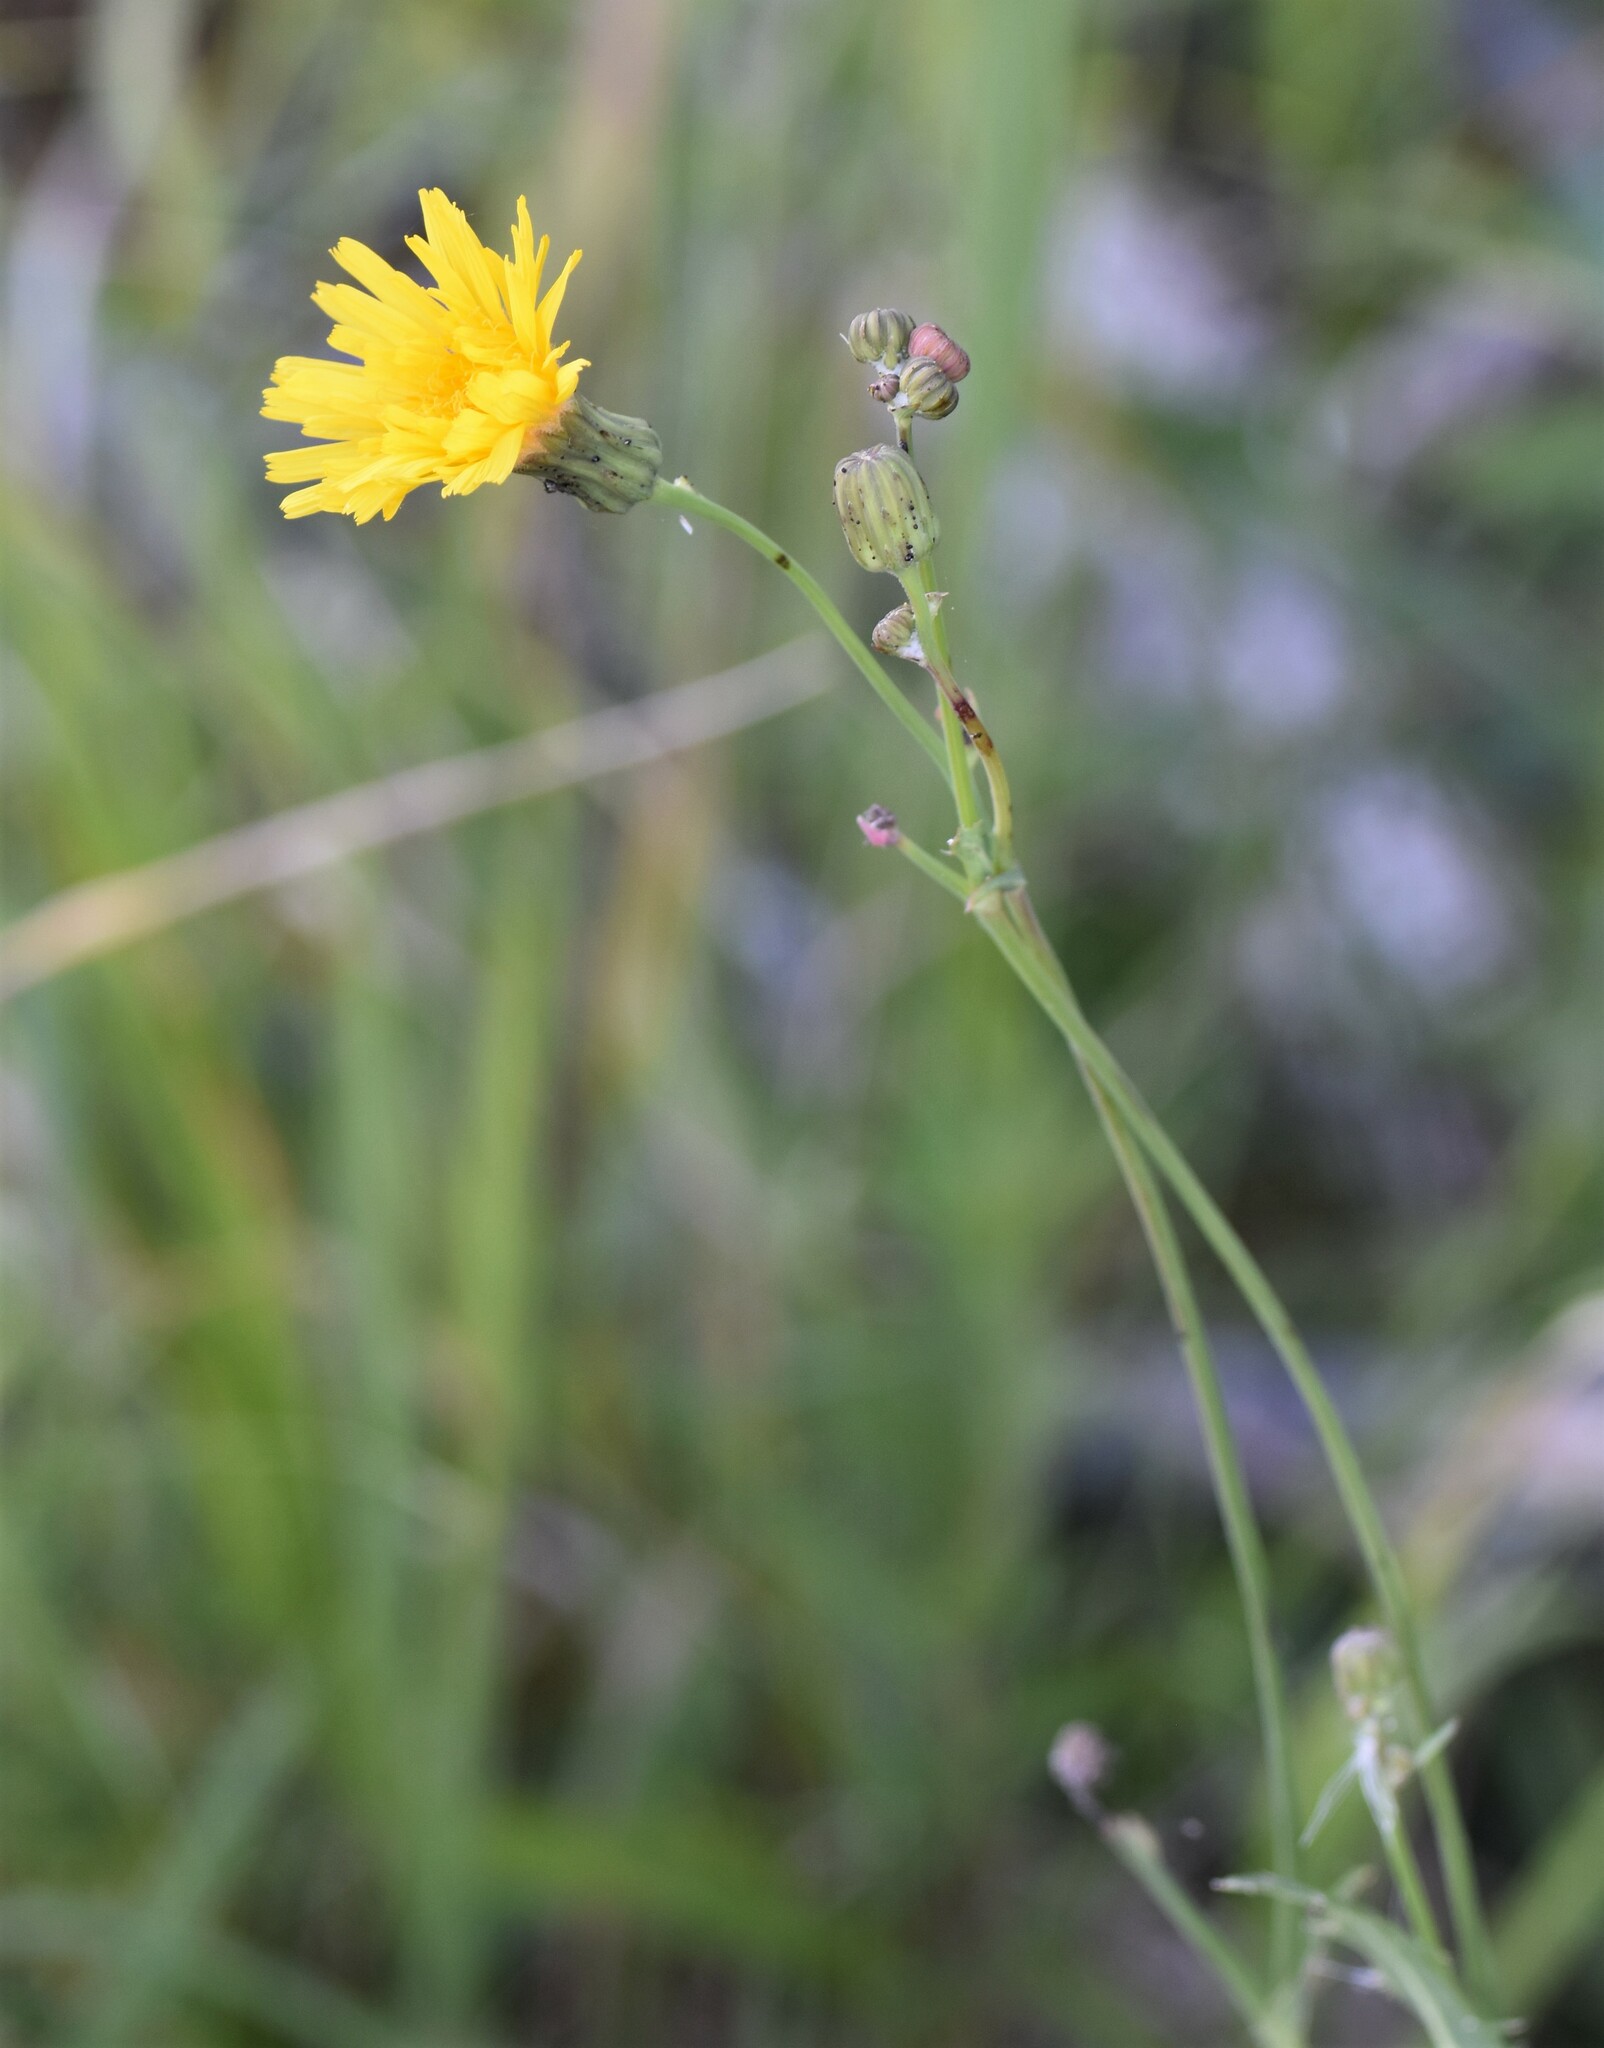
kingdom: Plantae
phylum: Tracheophyta
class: Magnoliopsida
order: Asterales
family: Asteraceae
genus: Sonchus
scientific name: Sonchus arvensis
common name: Perennial sow-thistle
